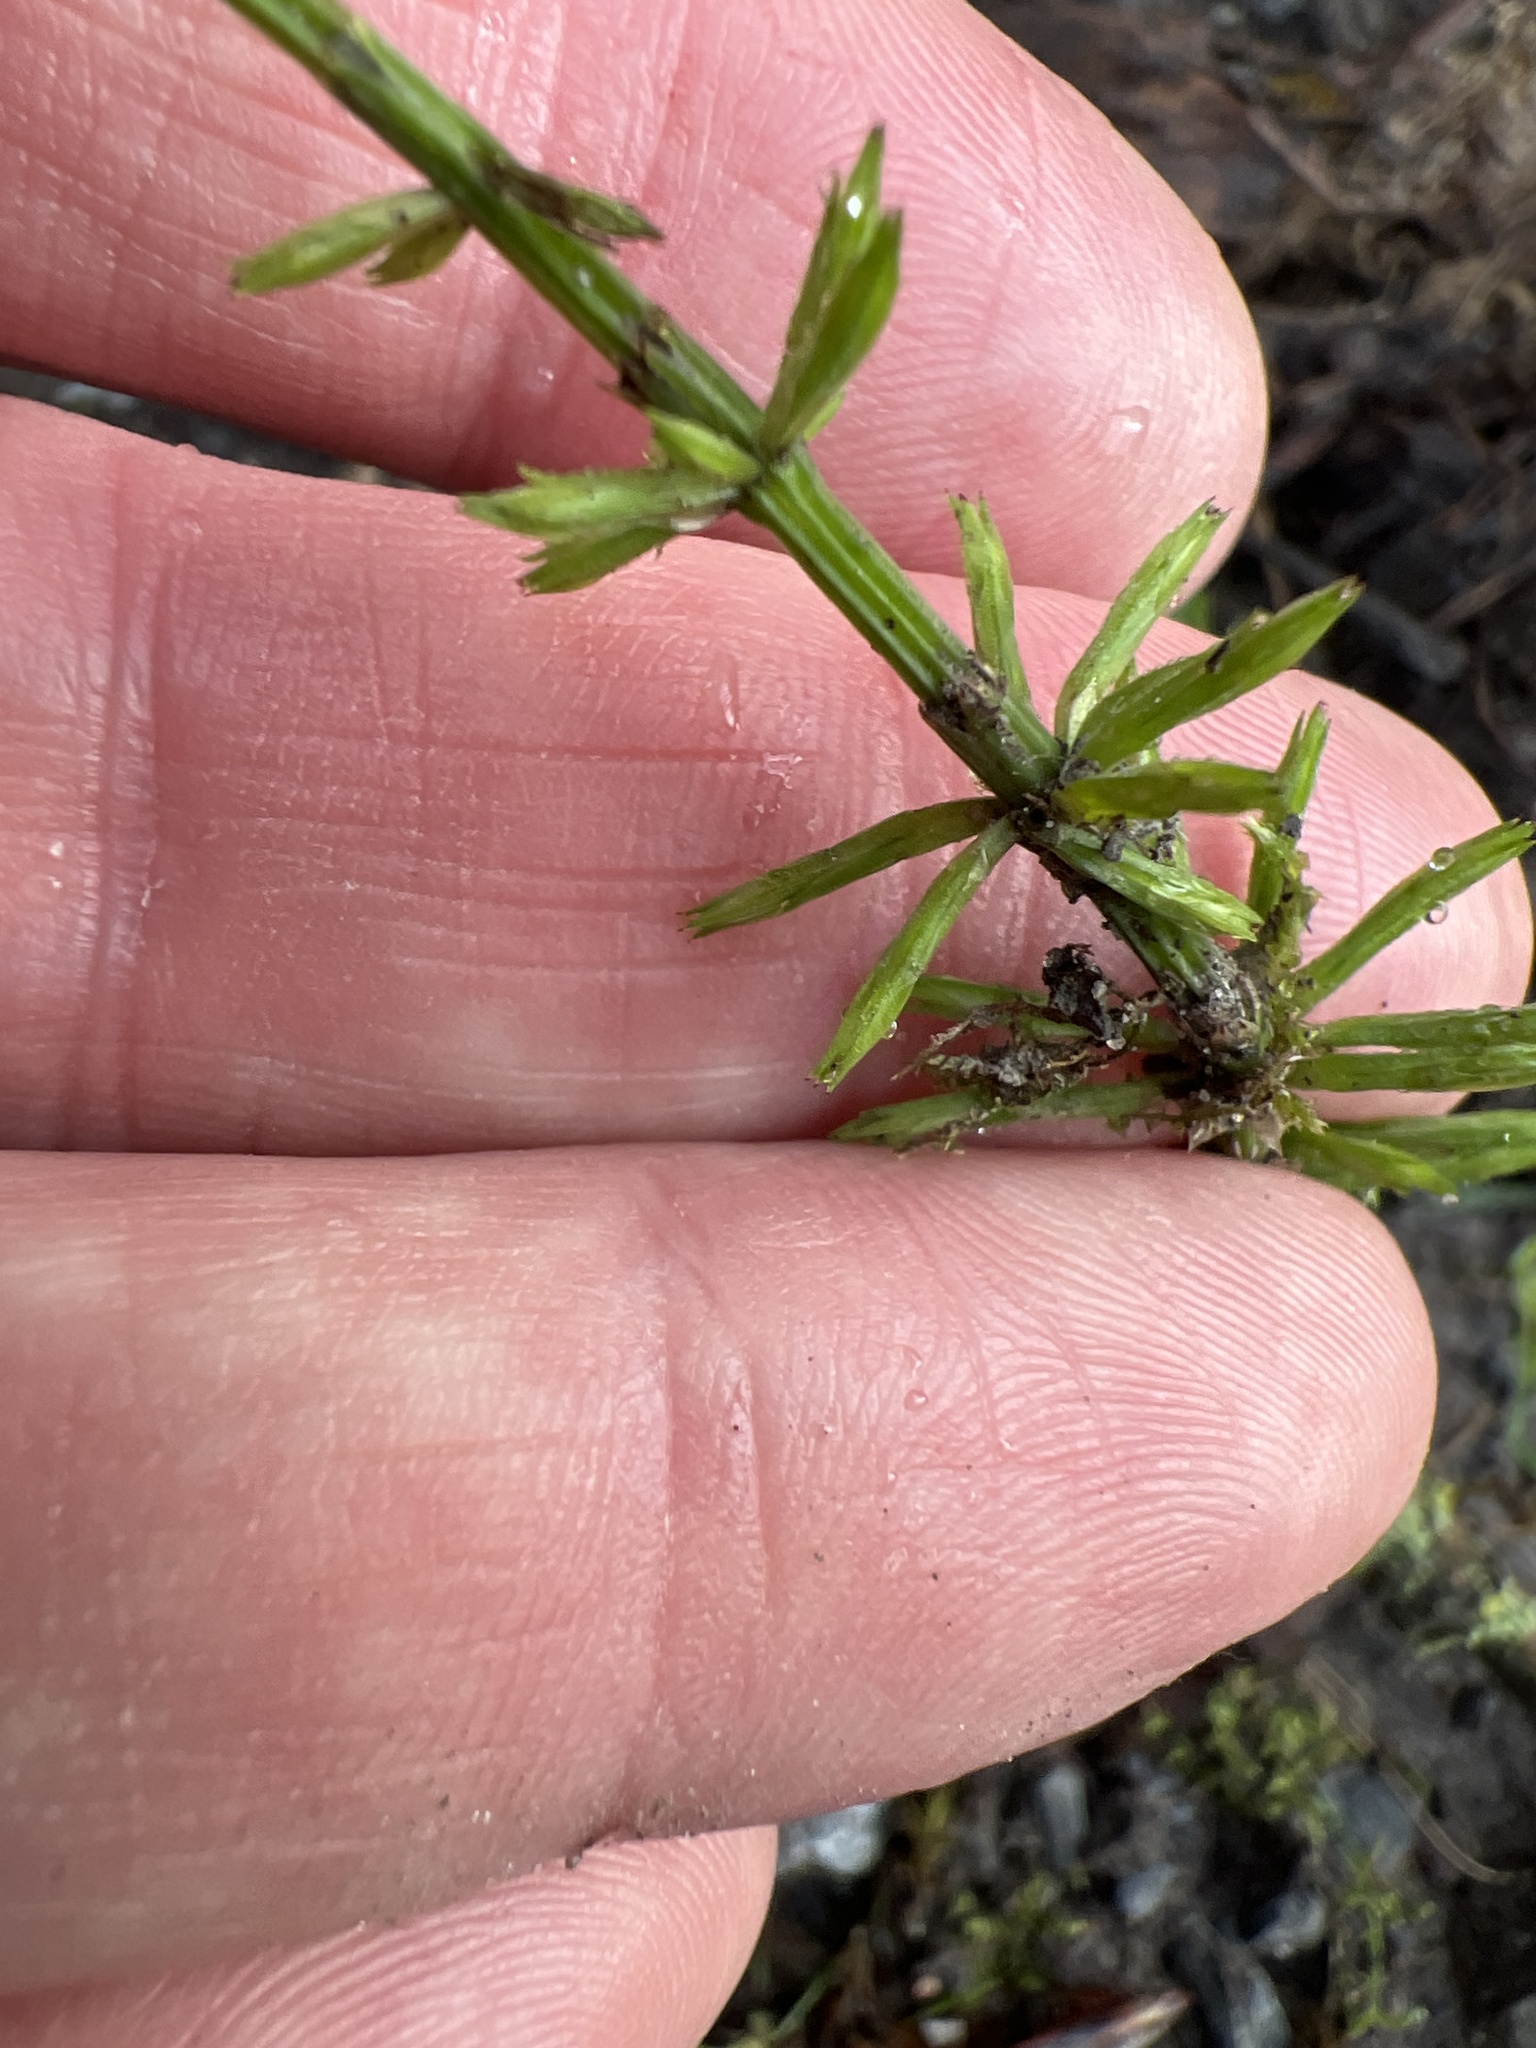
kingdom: Plantae
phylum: Tracheophyta
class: Polypodiopsida
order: Equisetales
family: Equisetaceae
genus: Equisetum
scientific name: Equisetum arvense
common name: Field horsetail
